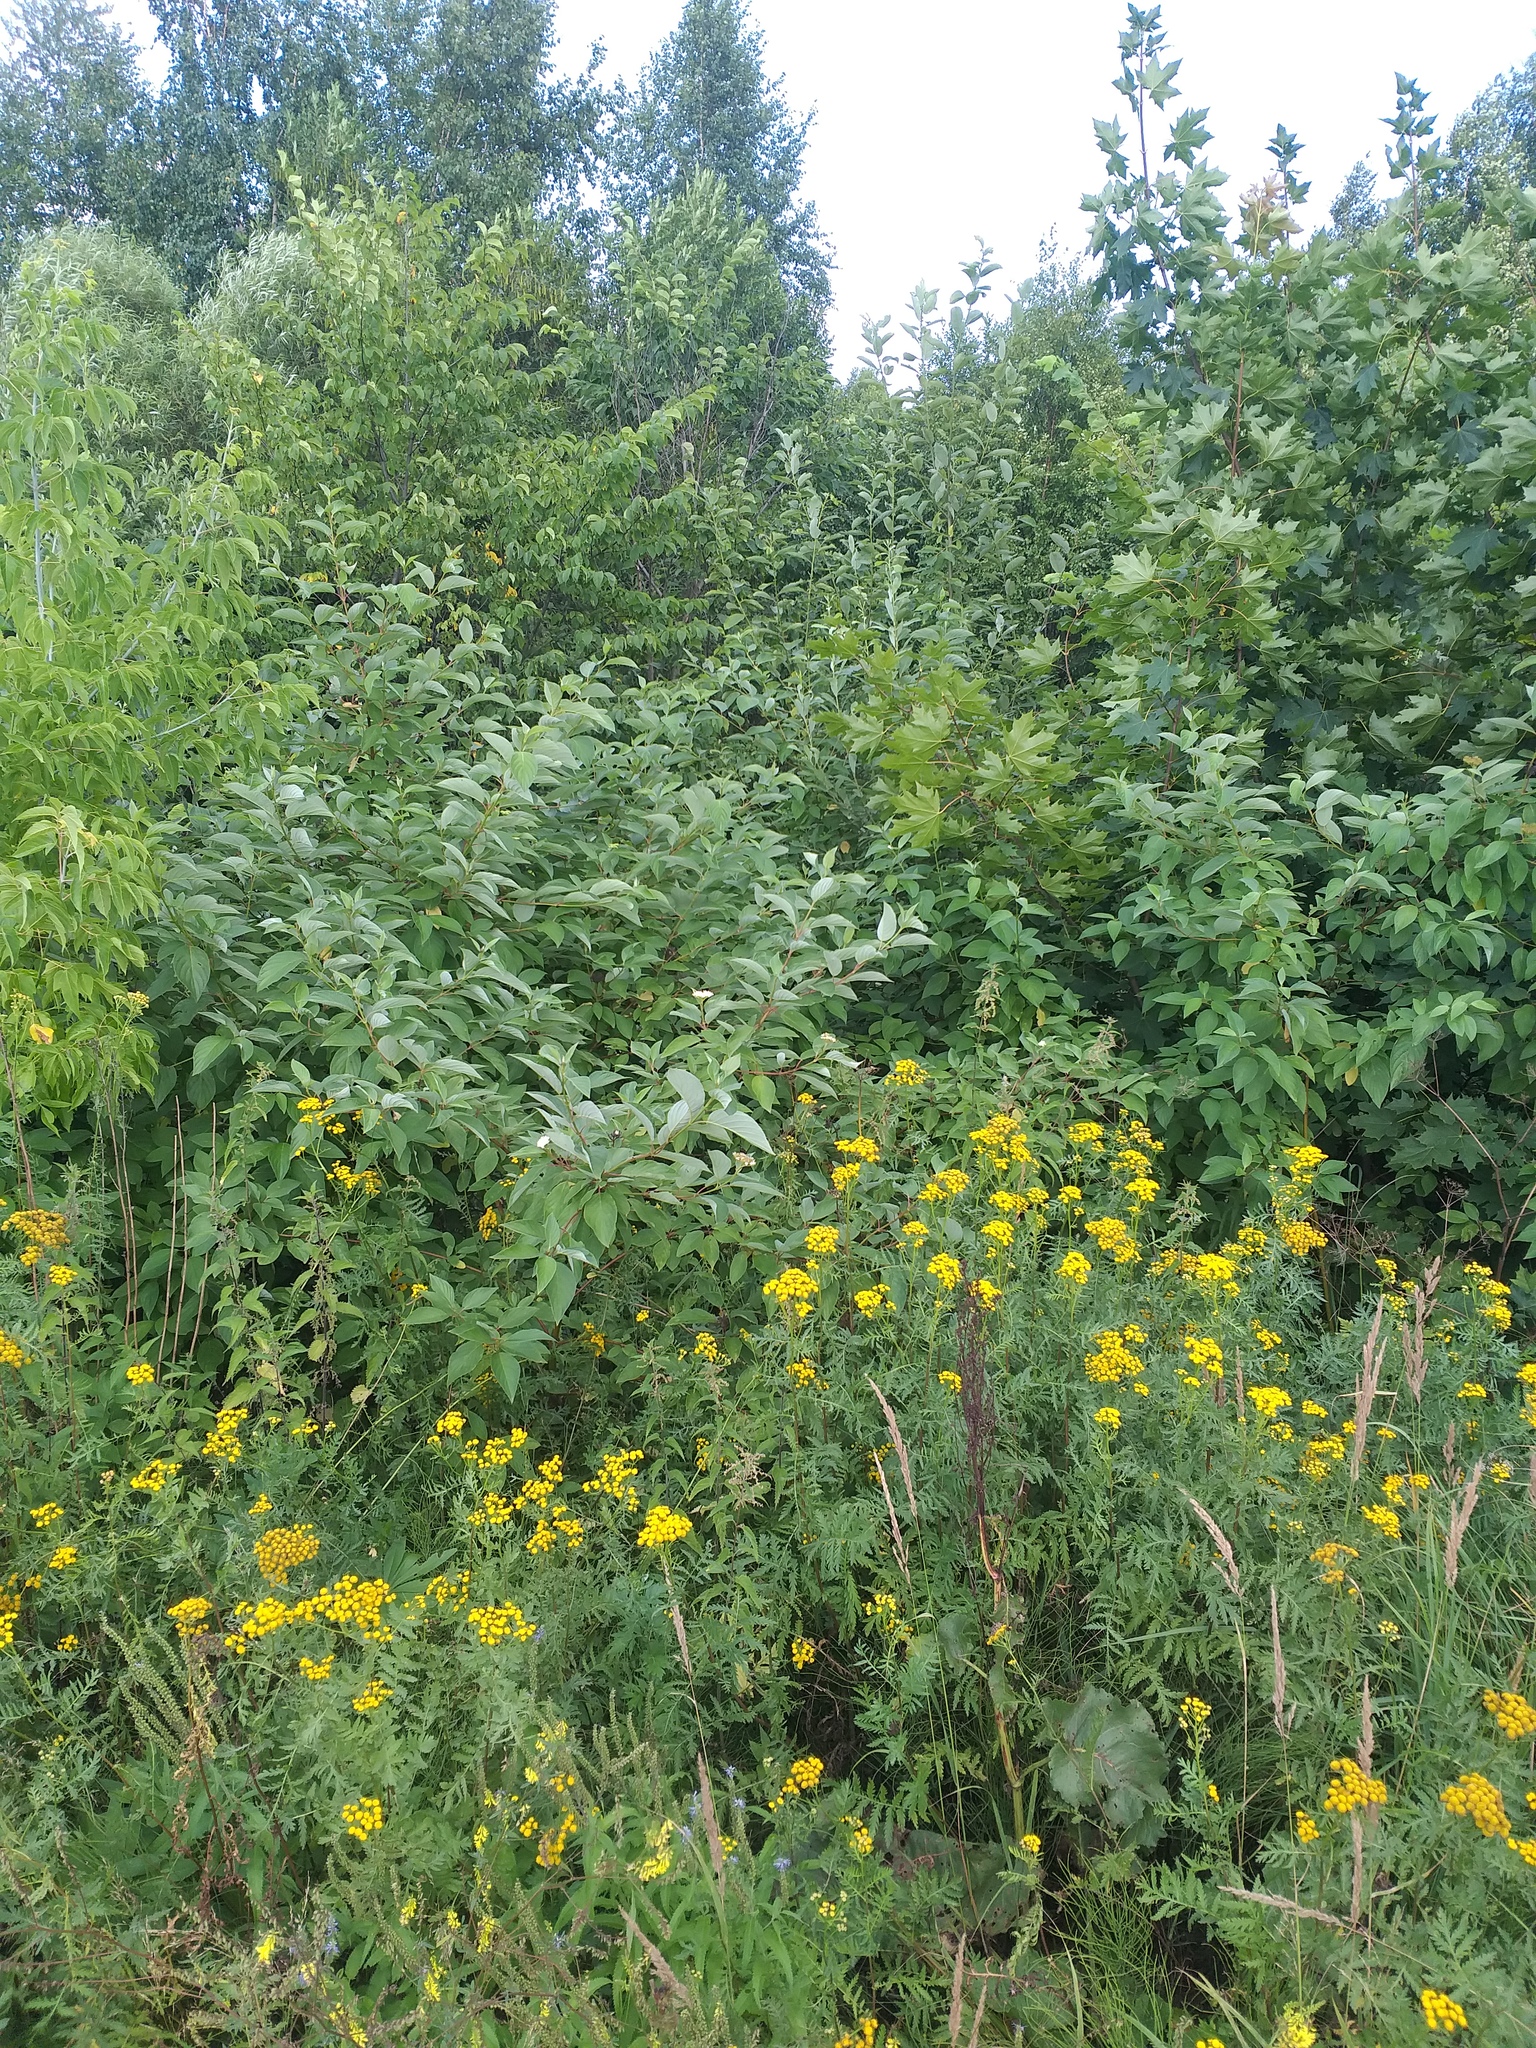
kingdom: Plantae
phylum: Tracheophyta
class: Magnoliopsida
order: Cornales
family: Cornaceae
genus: Cornus
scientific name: Cornus alba
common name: White dogwood
